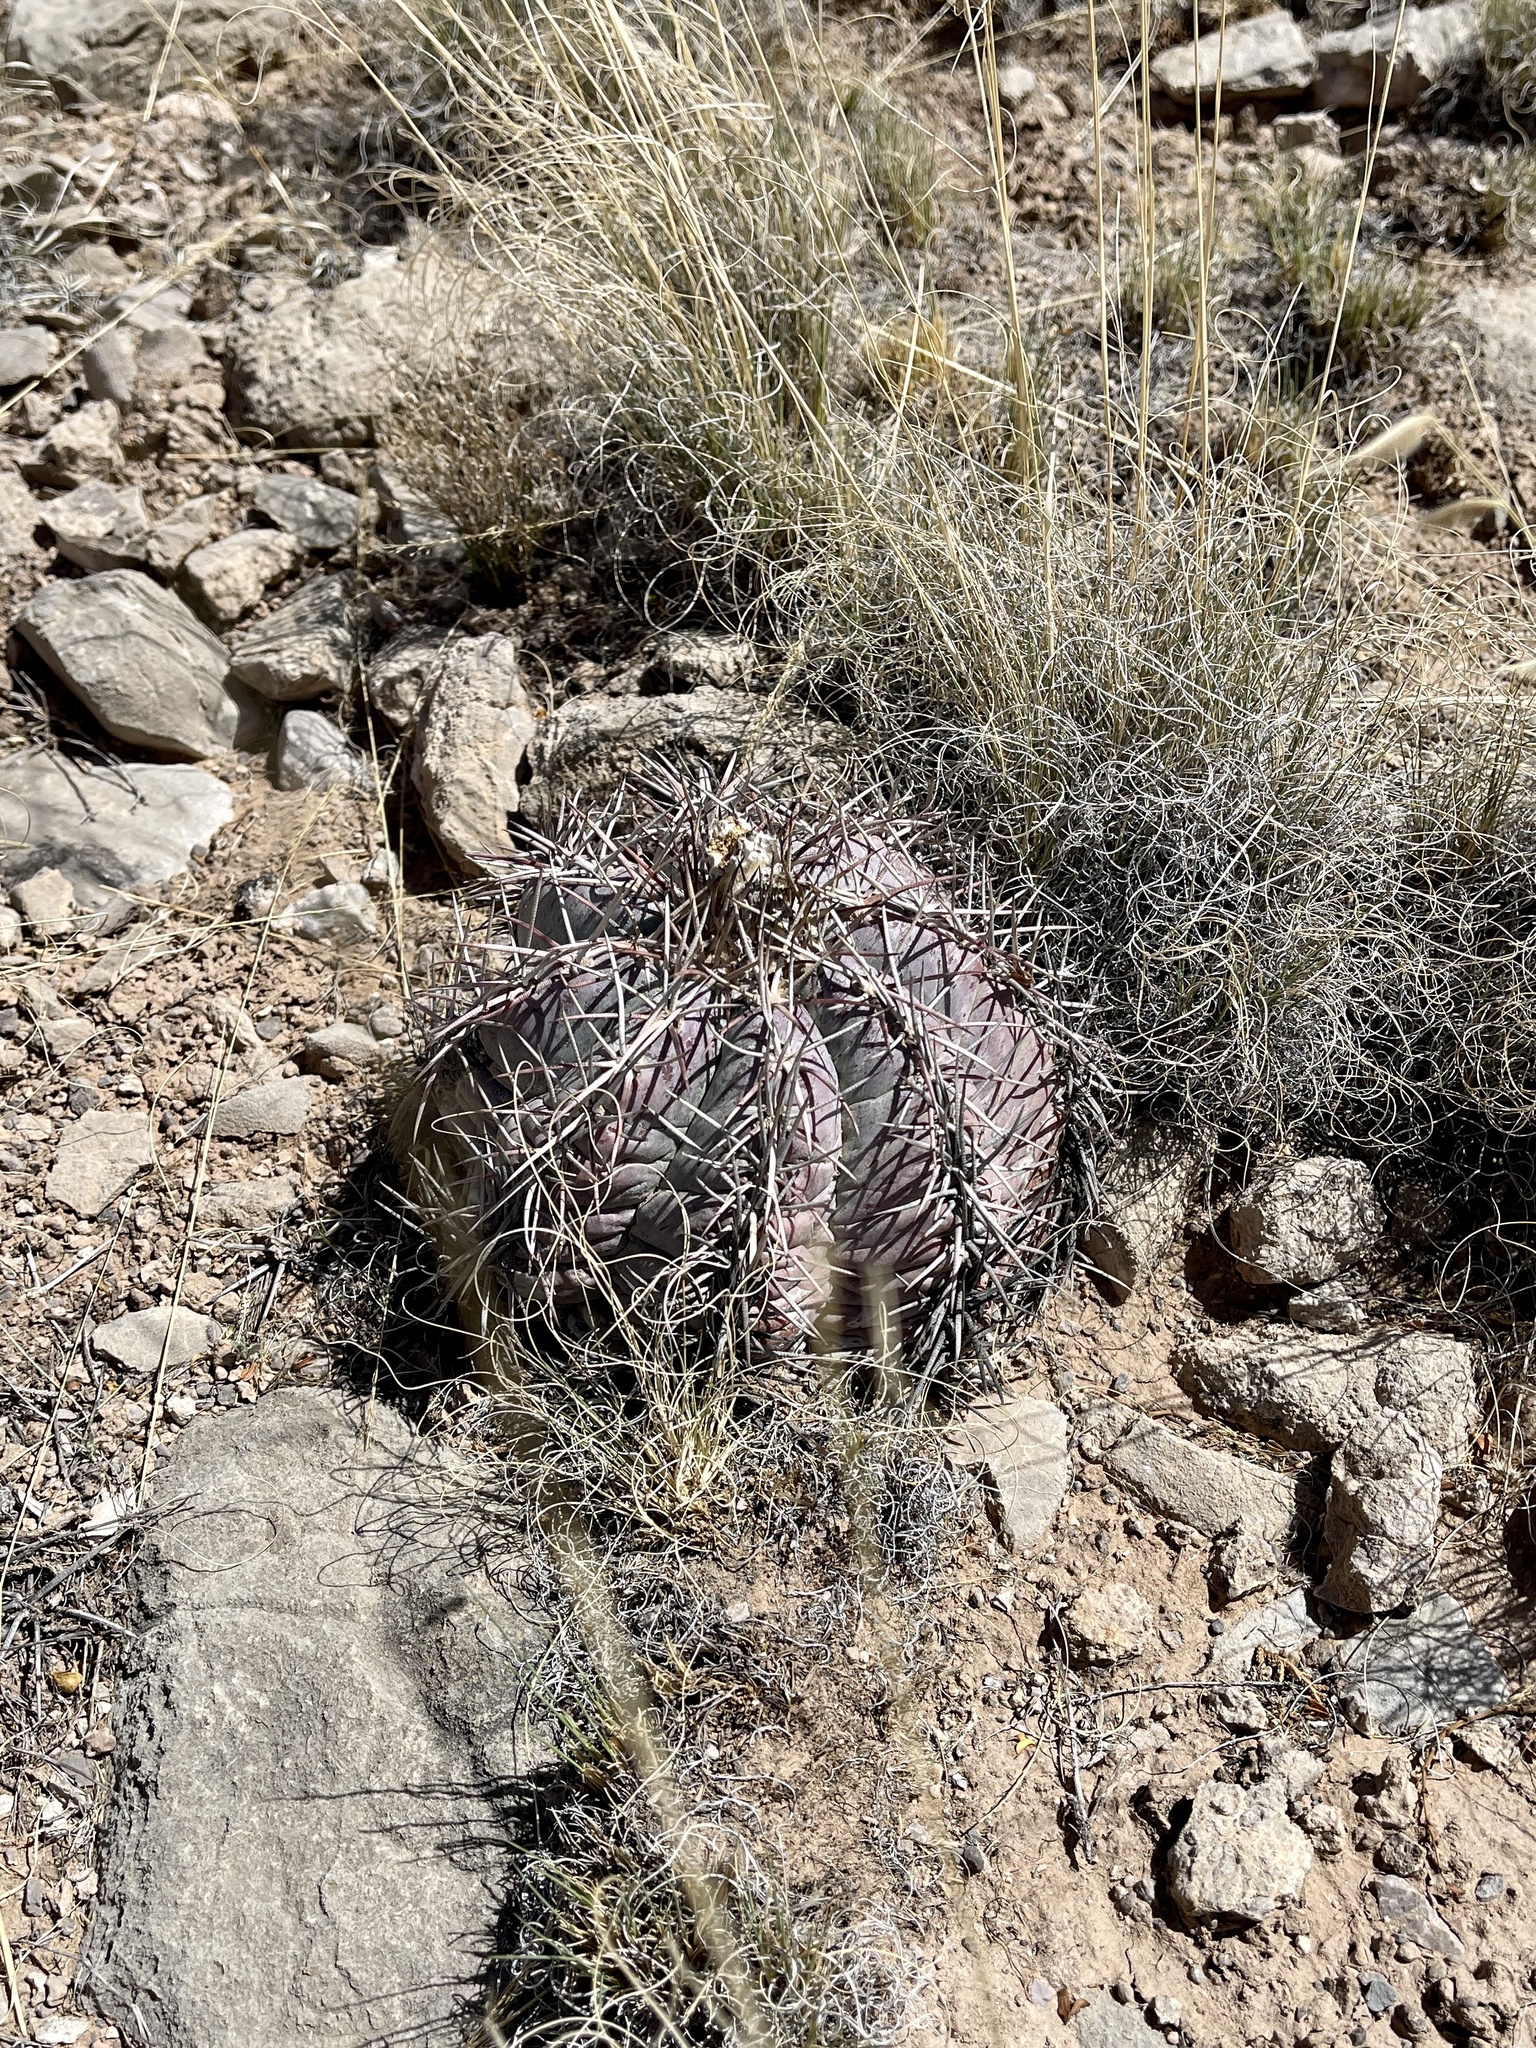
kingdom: Plantae
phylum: Tracheophyta
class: Magnoliopsida
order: Caryophyllales
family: Cactaceae
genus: Echinocactus
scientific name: Echinocactus horizonthalonius
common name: Devilshead
